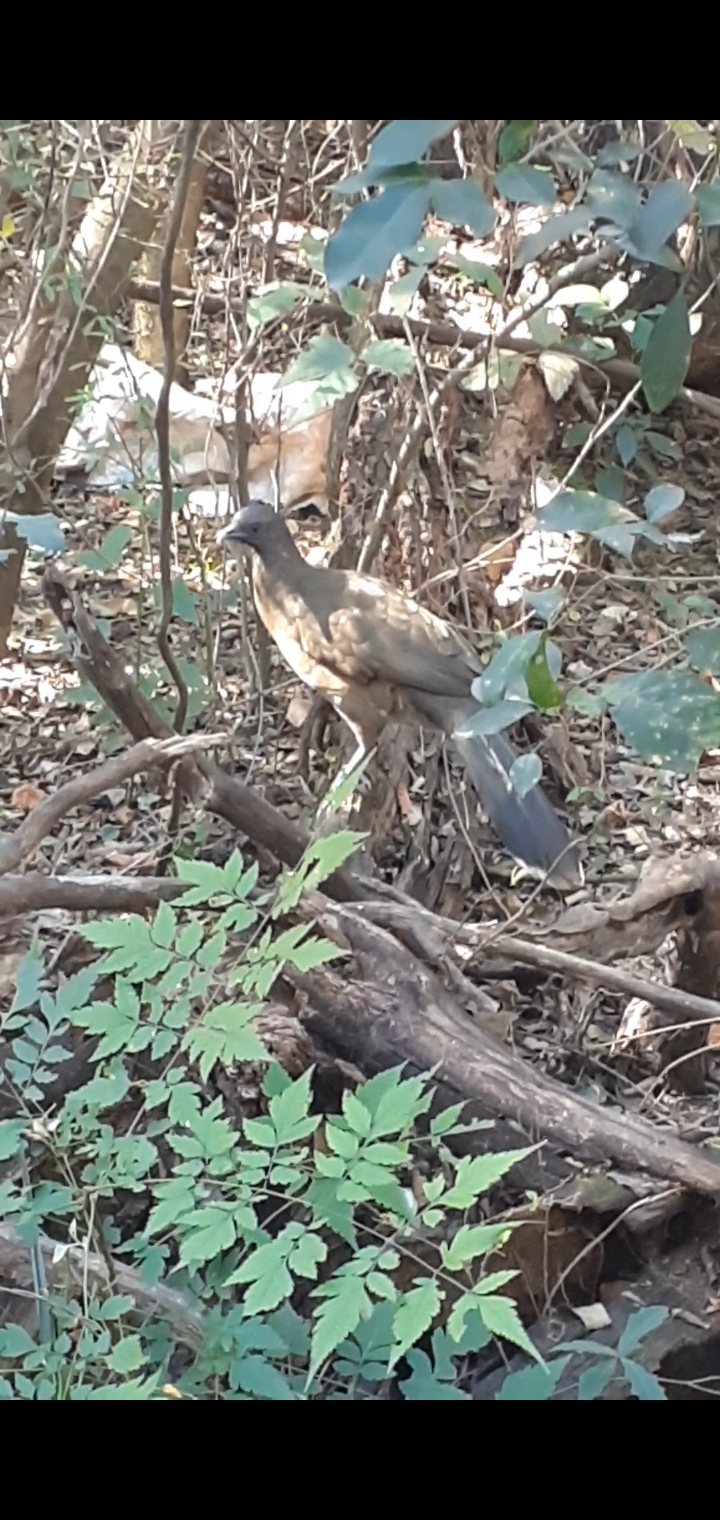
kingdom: Animalia
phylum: Chordata
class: Aves
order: Galliformes
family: Cracidae
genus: Ortalis
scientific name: Ortalis vetula
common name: Plain chachalaca
